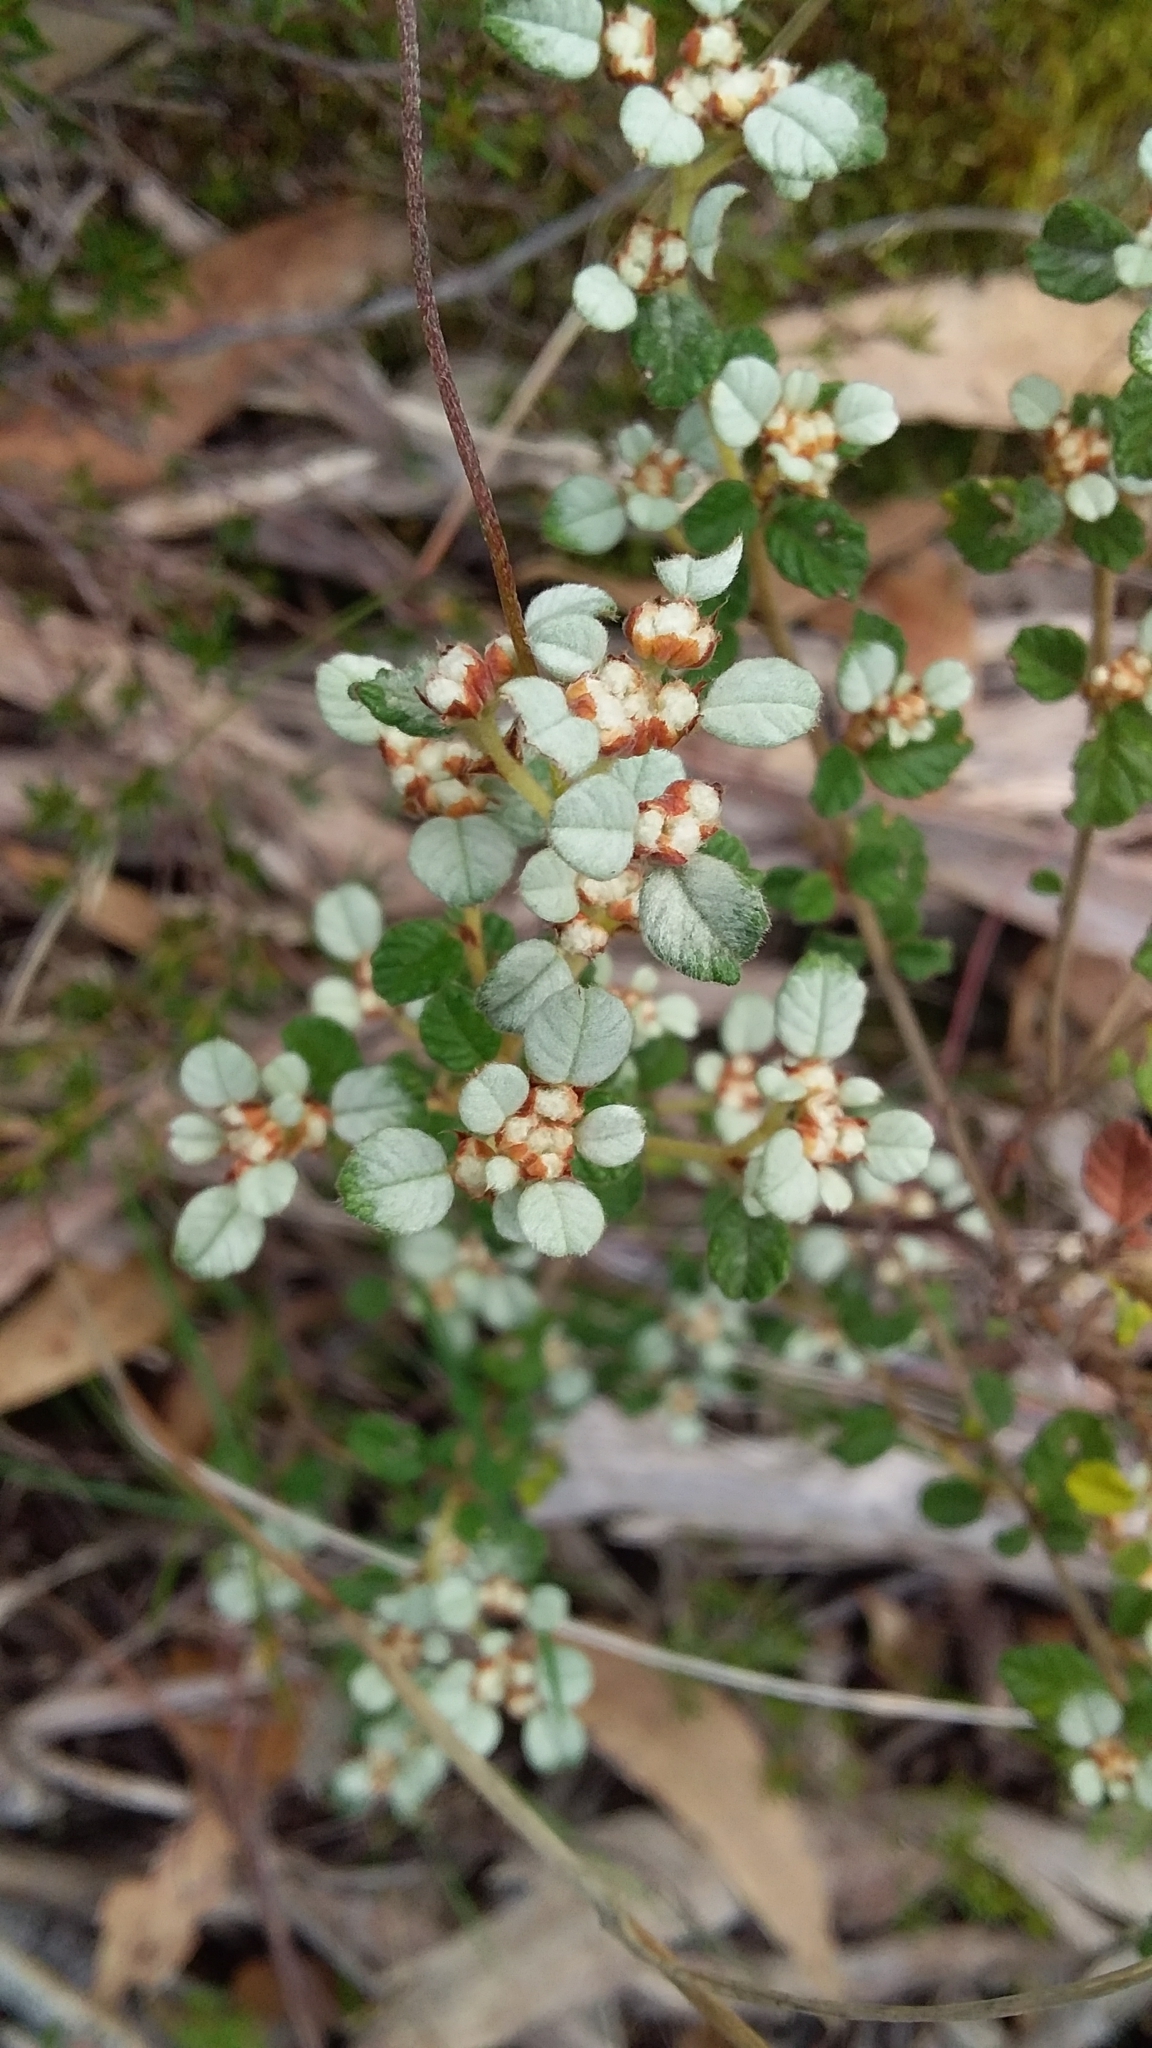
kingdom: Plantae
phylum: Tracheophyta
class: Magnoliopsida
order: Rosales
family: Rhamnaceae
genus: Spyridium
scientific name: Spyridium parvifolium
